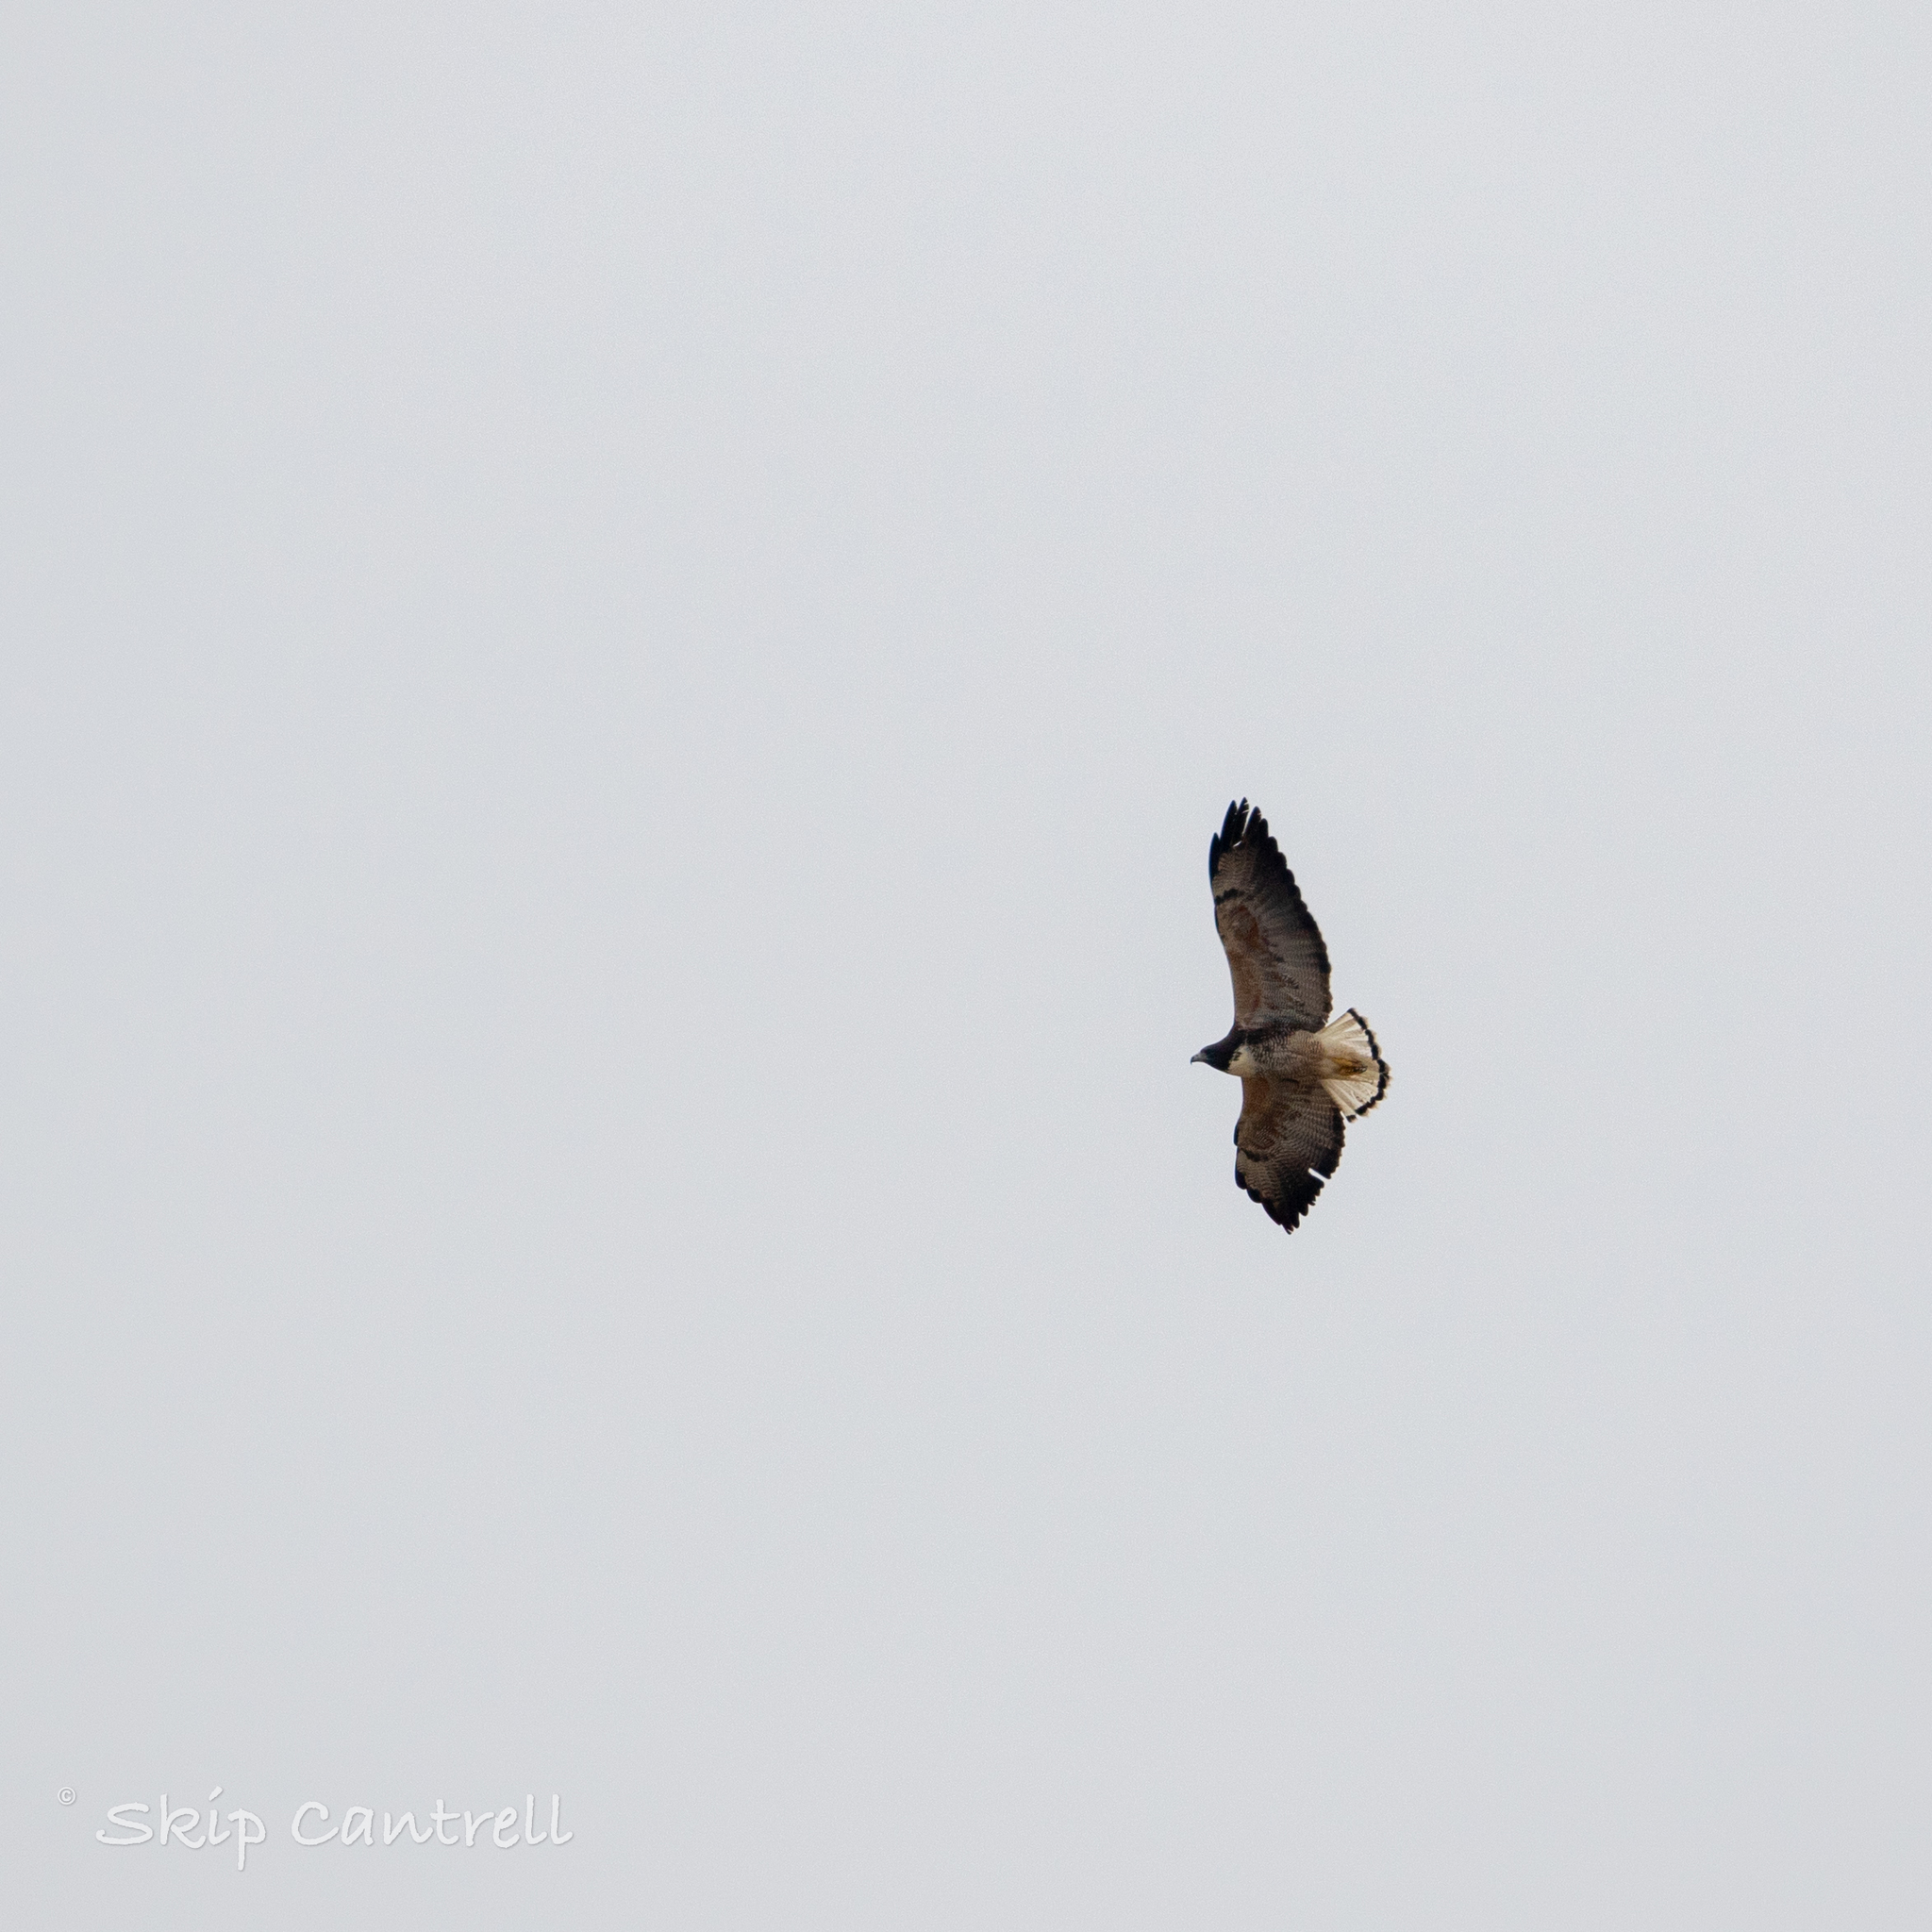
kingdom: Animalia
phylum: Chordata
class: Aves
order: Accipitriformes
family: Accipitridae
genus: Buteo
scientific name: Buteo albicaudatus
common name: White-tailed hawk
